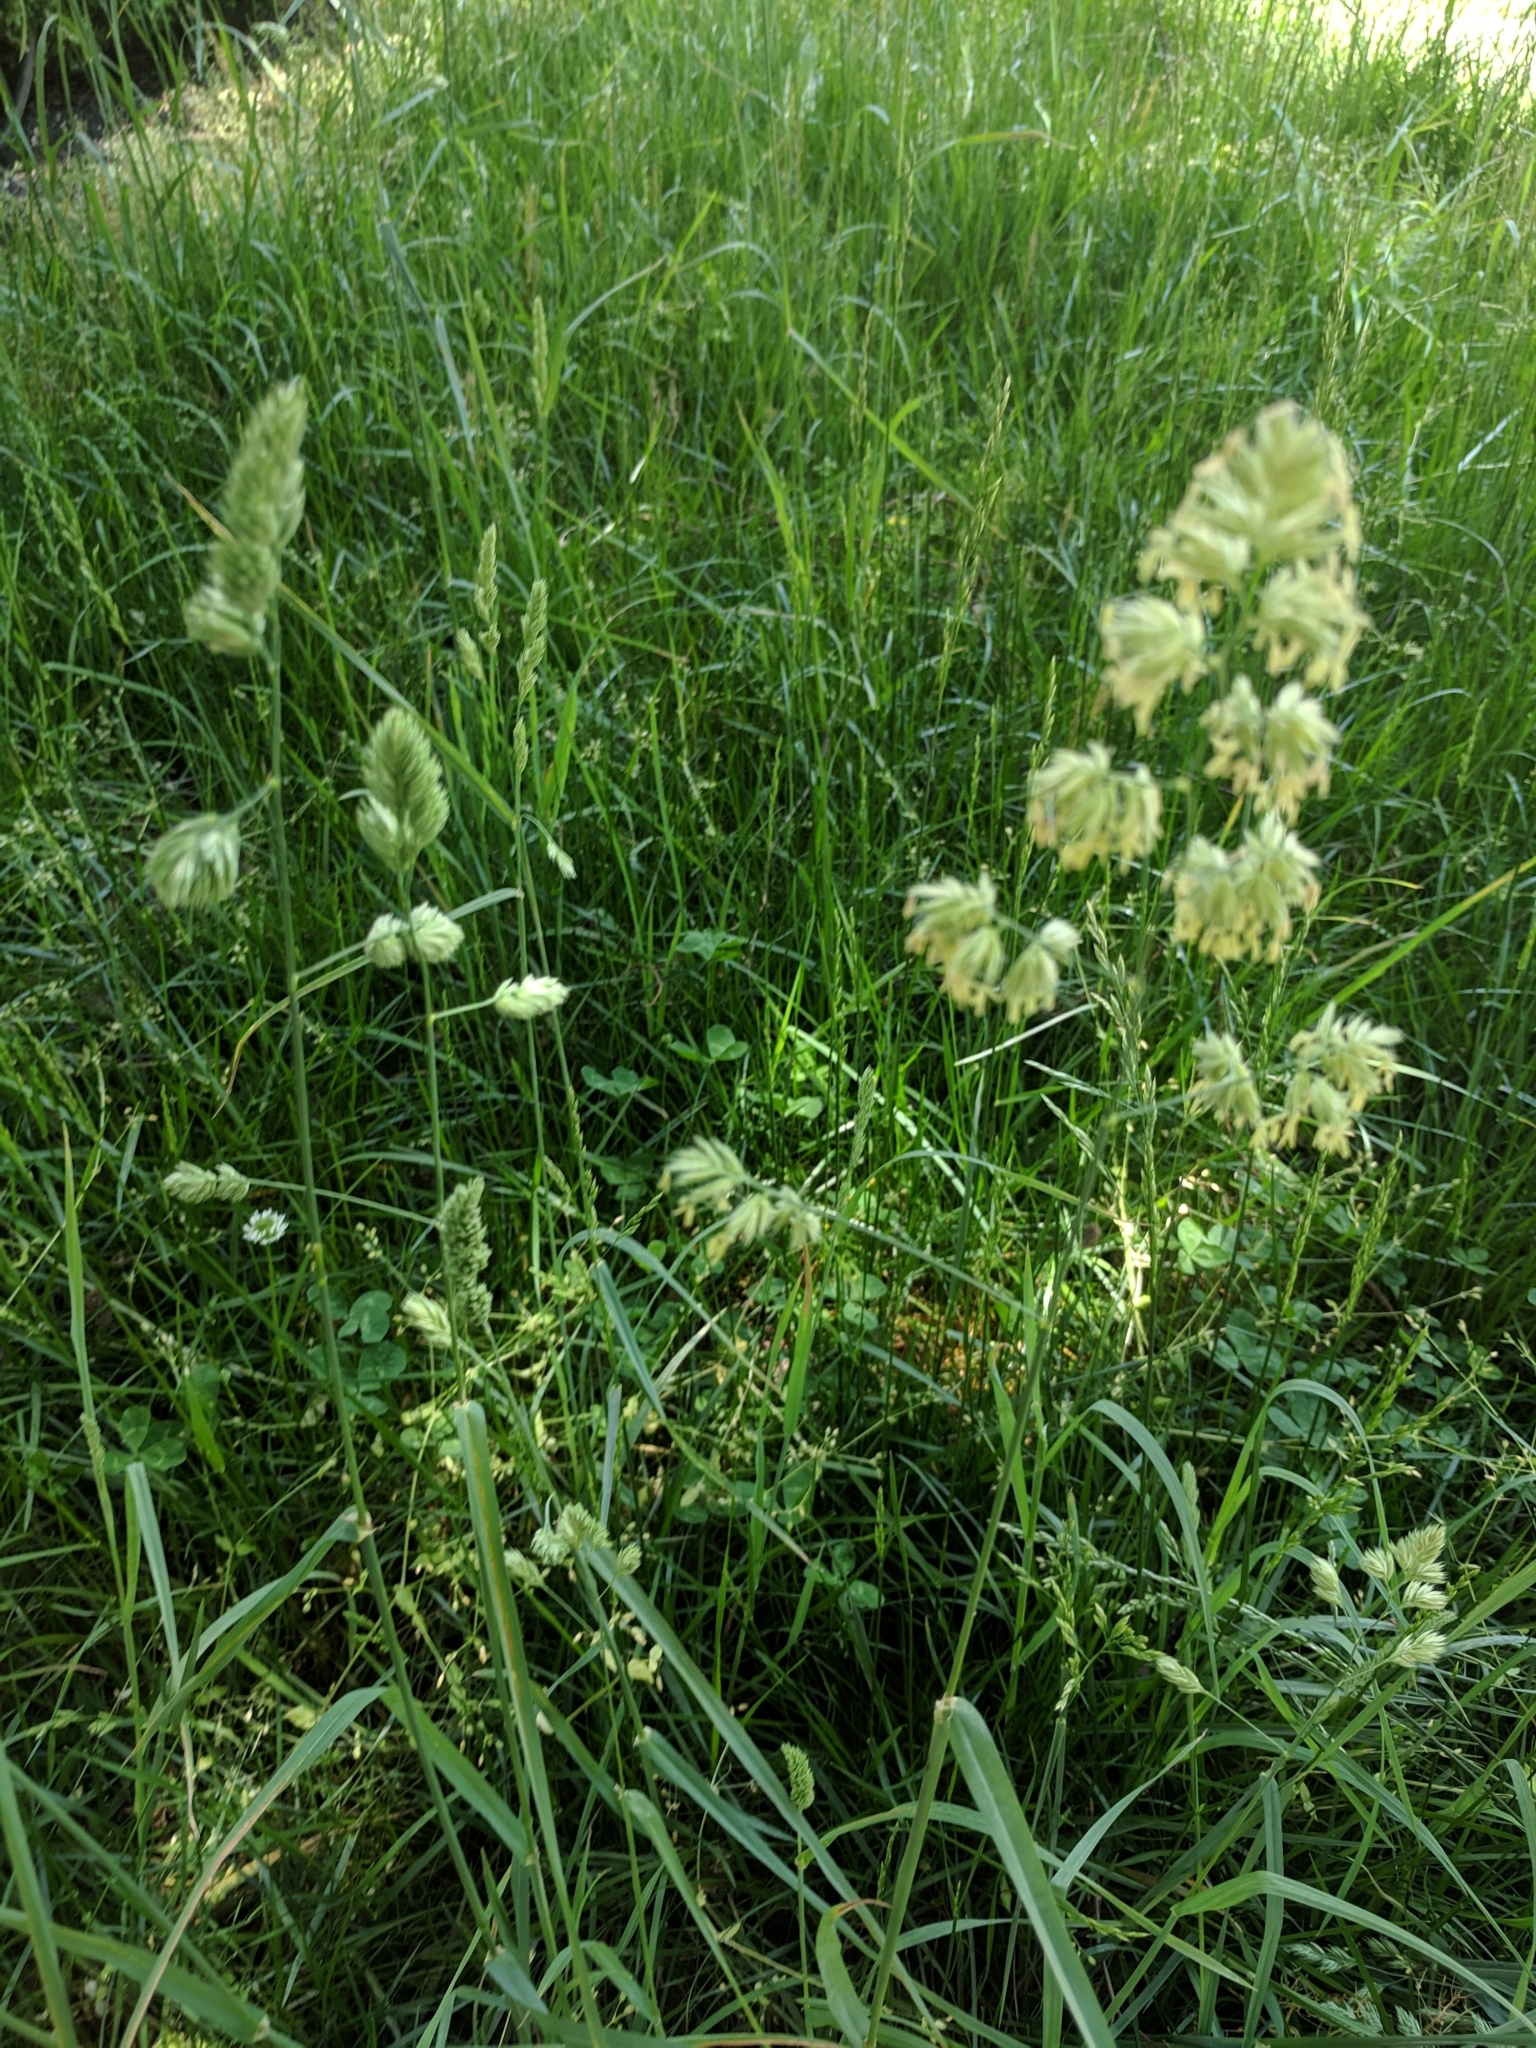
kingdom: Plantae
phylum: Tracheophyta
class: Liliopsida
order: Poales
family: Poaceae
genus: Dactylis
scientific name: Dactylis glomerata
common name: Orchardgrass
